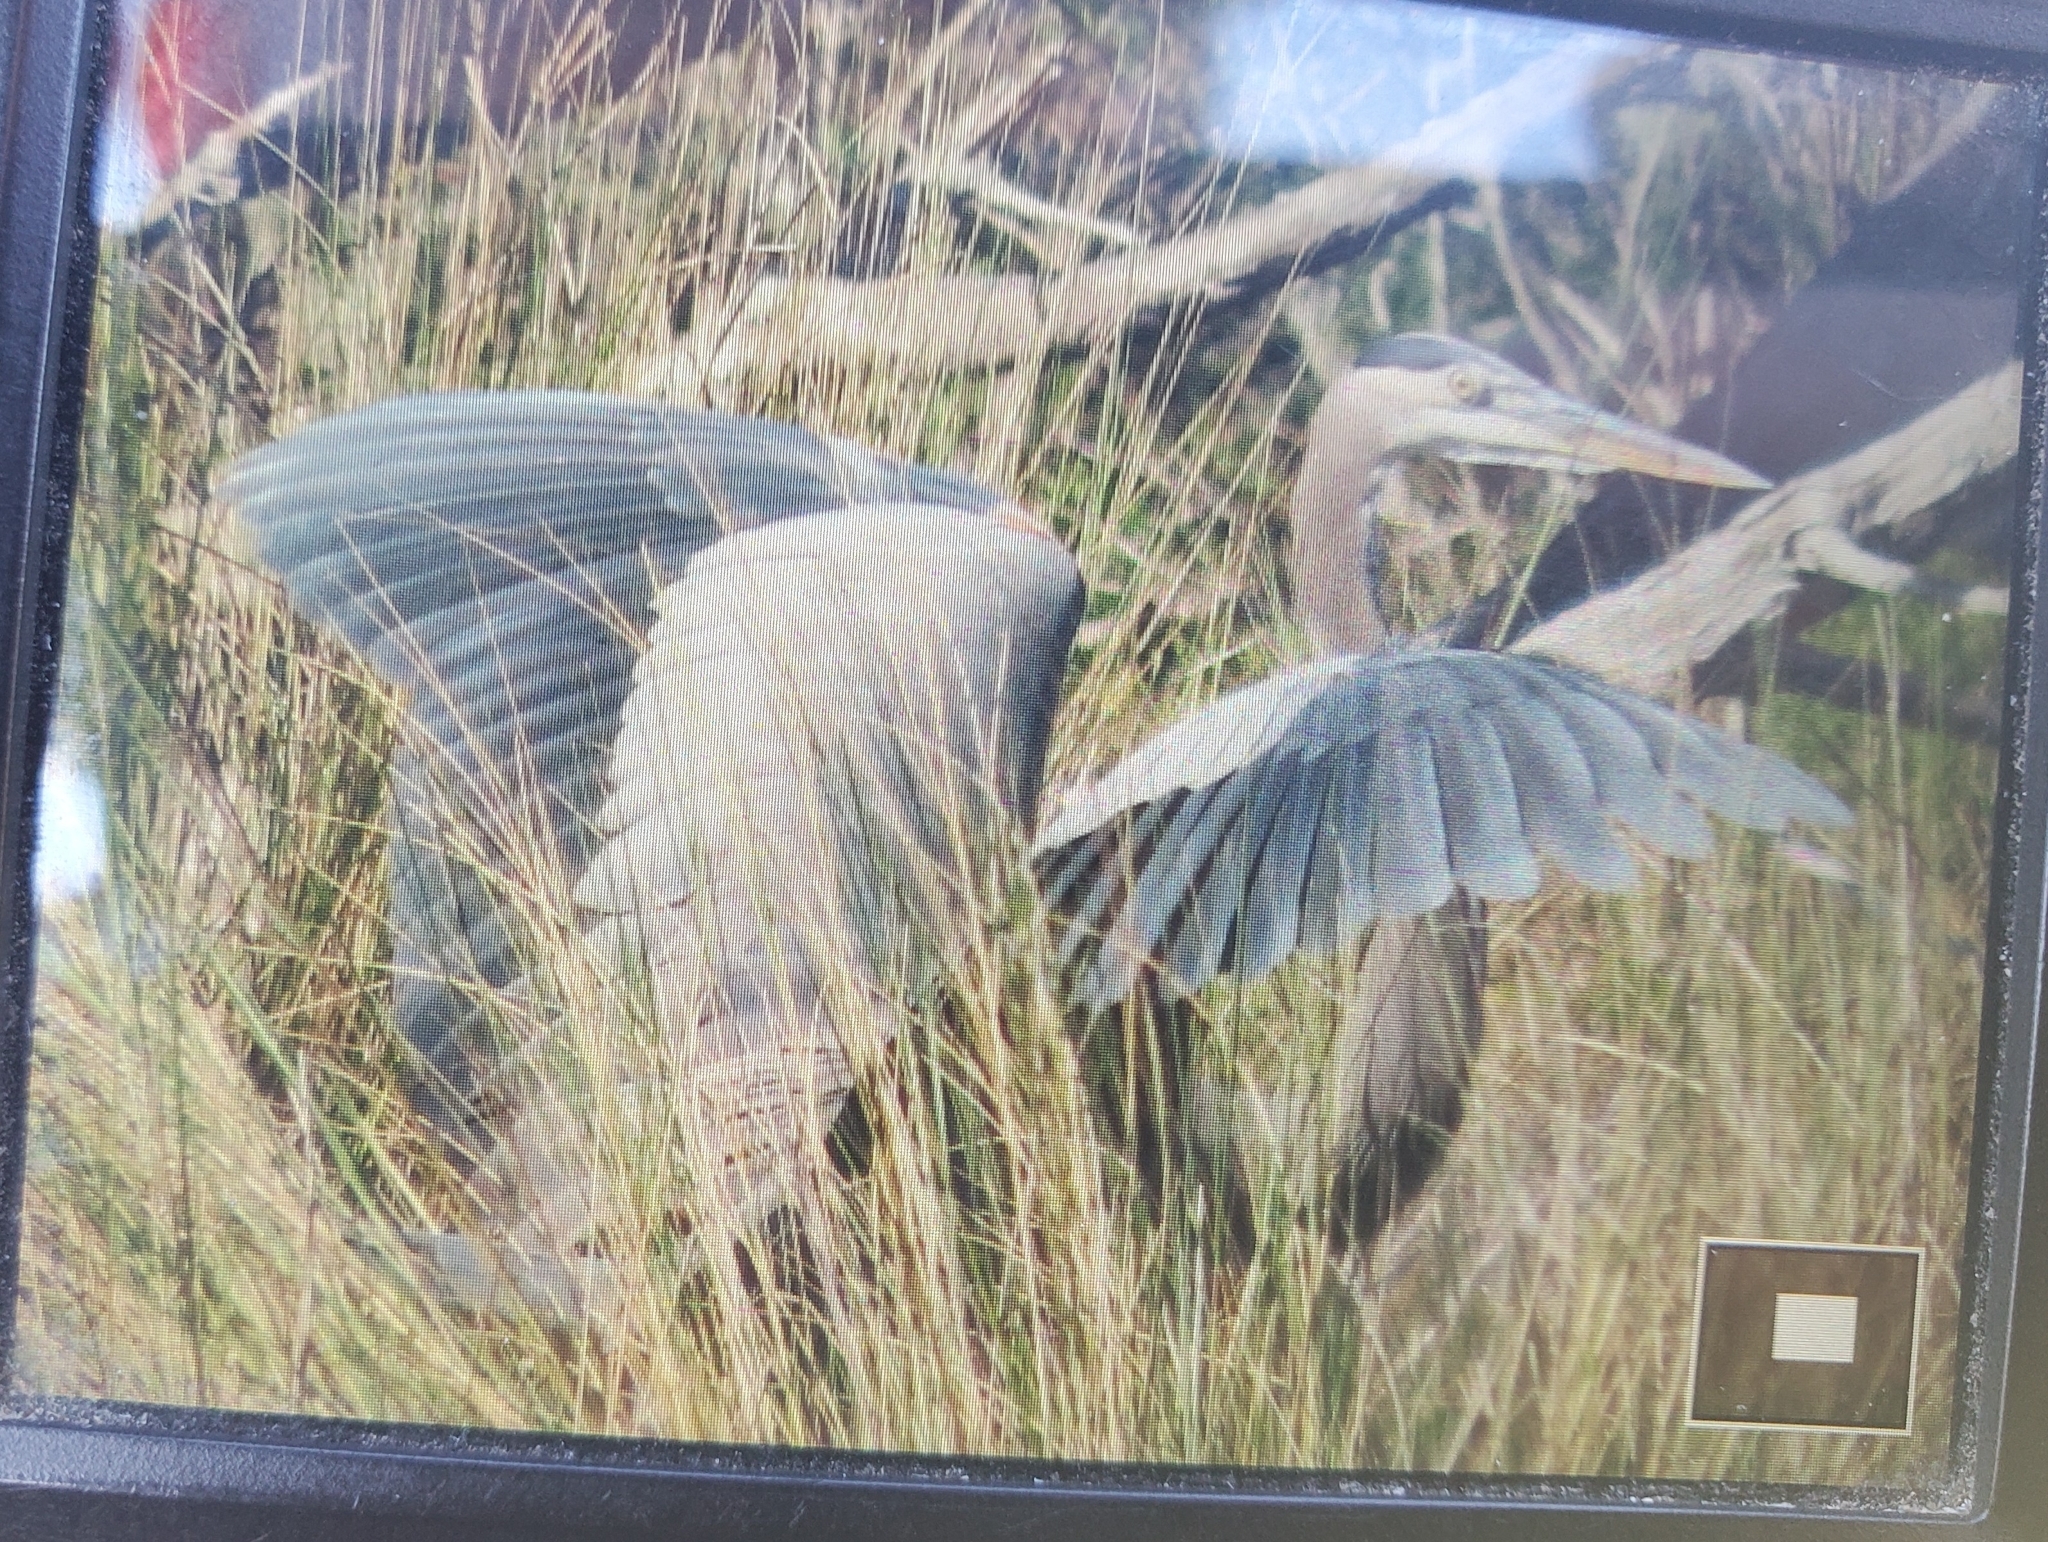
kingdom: Animalia
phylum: Chordata
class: Aves
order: Pelecaniformes
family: Ardeidae
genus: Ardea
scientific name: Ardea herodias
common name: Great blue heron
